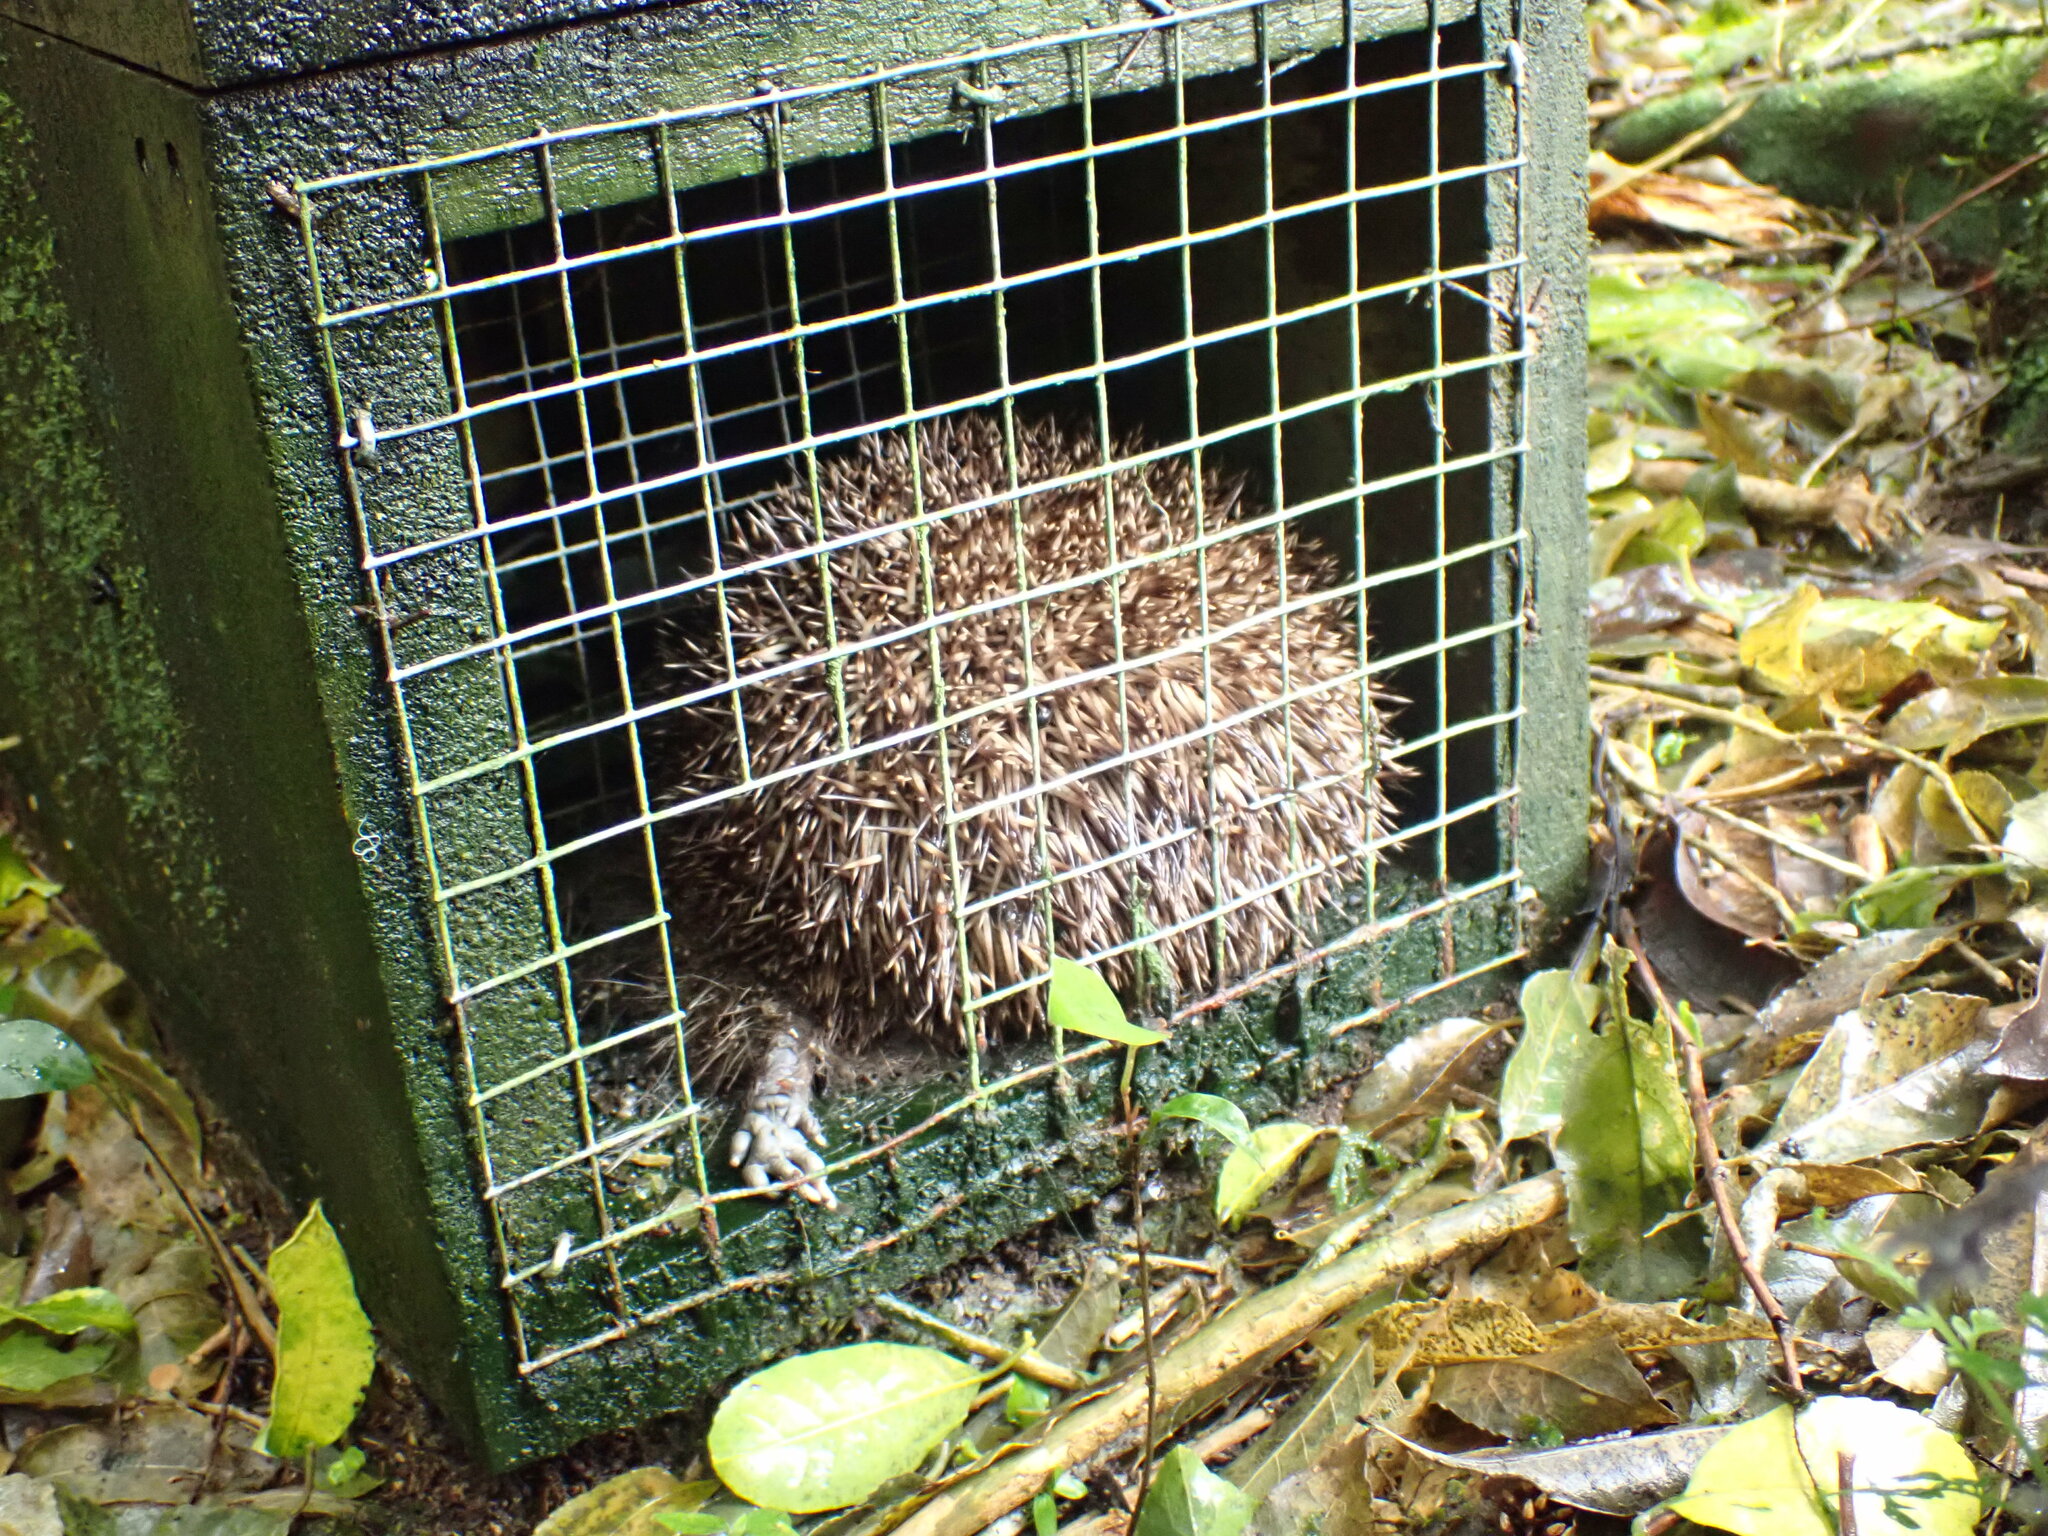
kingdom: Animalia
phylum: Chordata
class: Mammalia
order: Erinaceomorpha
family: Erinaceidae
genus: Erinaceus
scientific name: Erinaceus europaeus
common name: West european hedgehog
